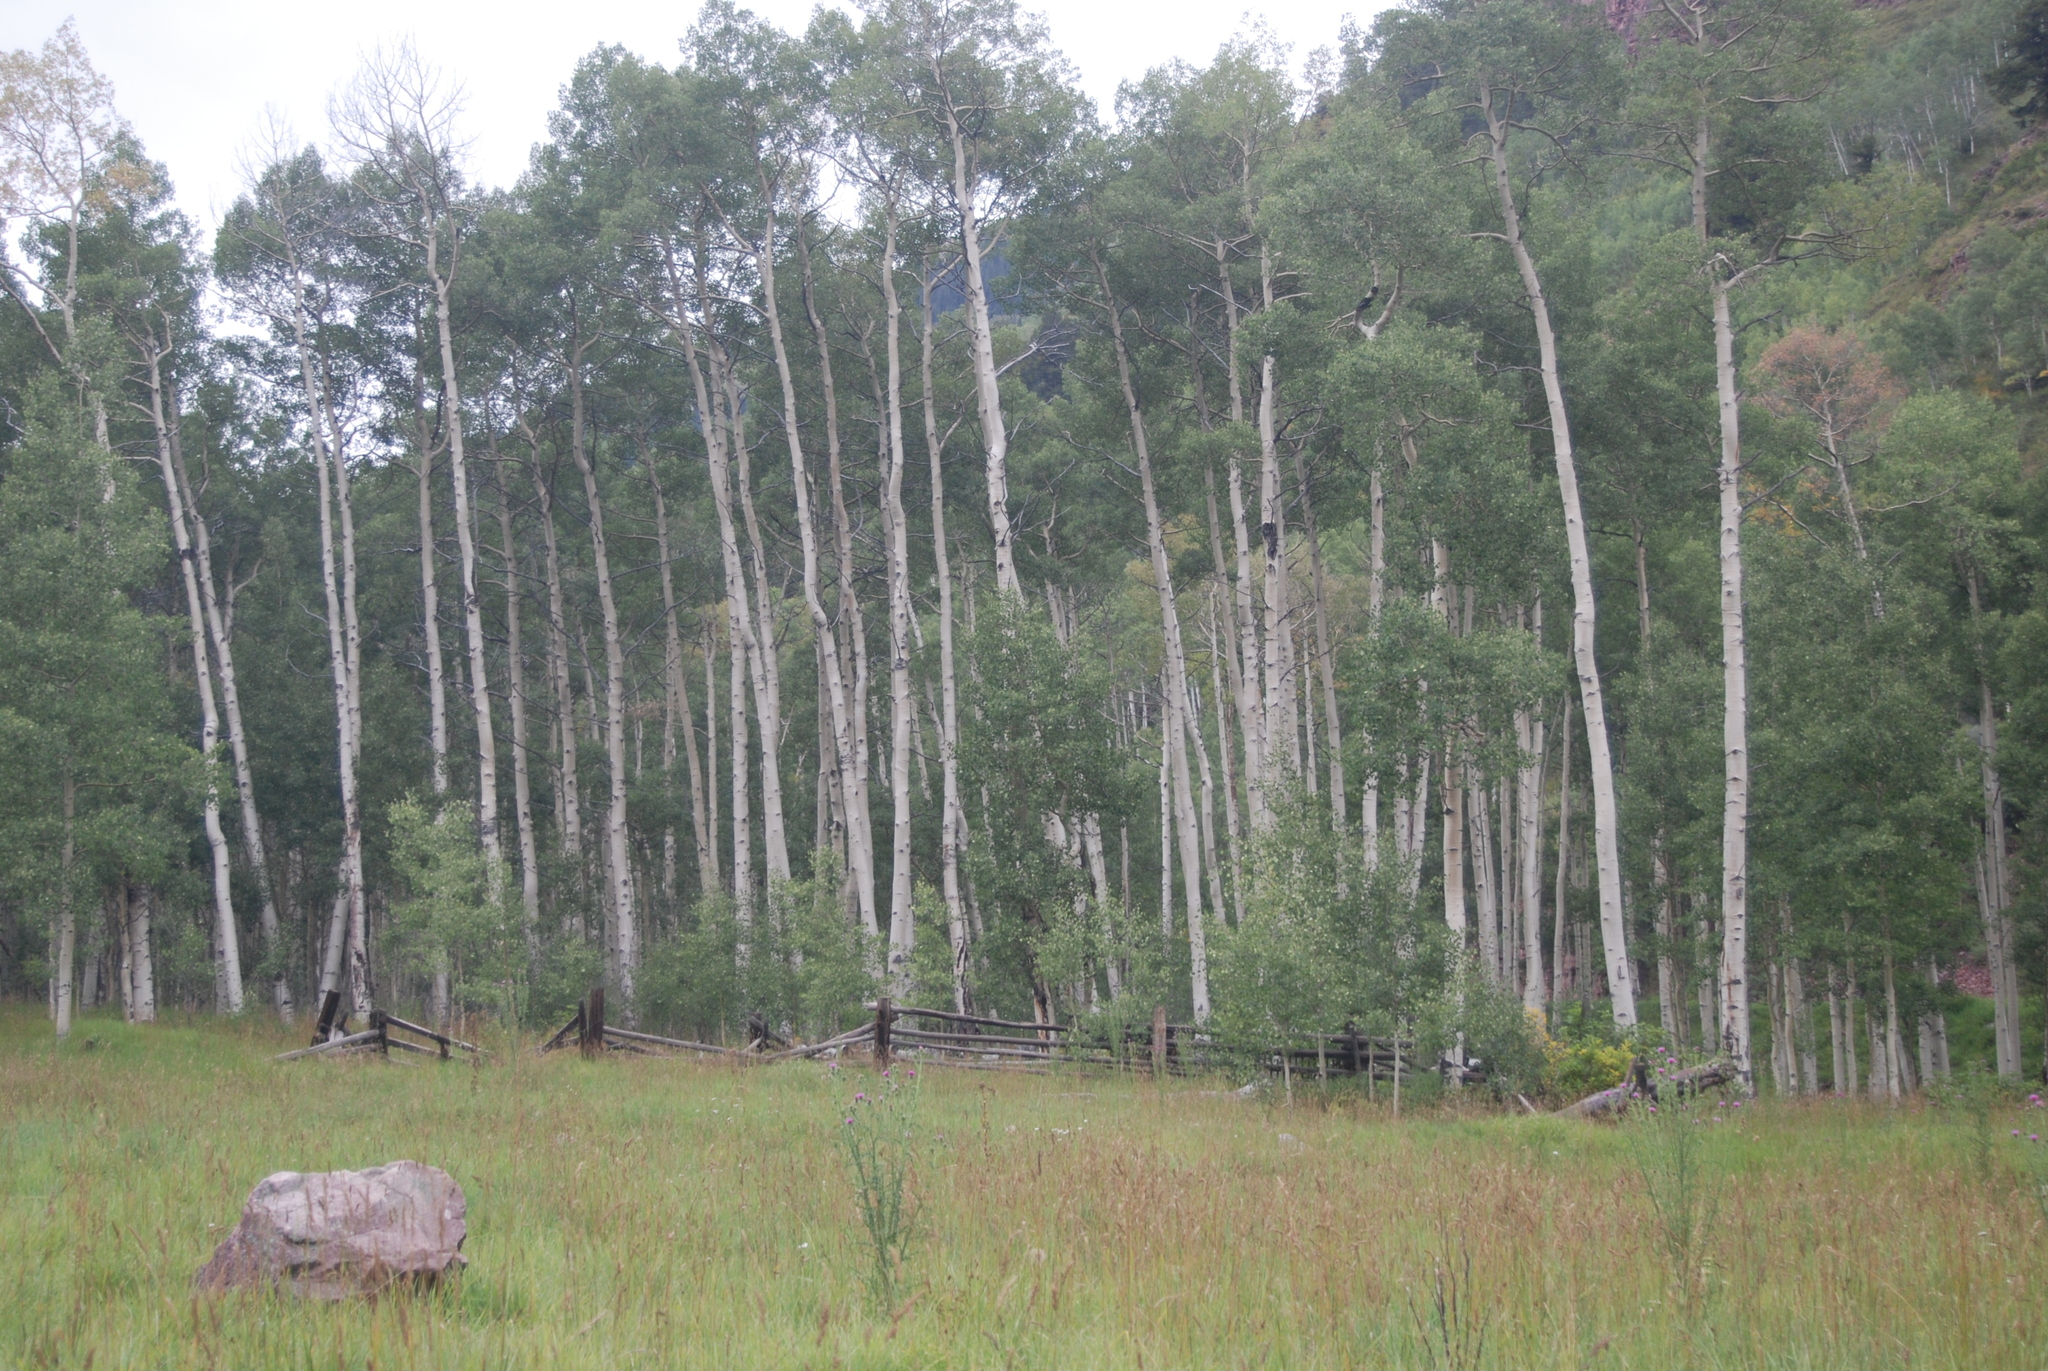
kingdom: Plantae
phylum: Tracheophyta
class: Magnoliopsida
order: Malpighiales
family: Salicaceae
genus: Populus
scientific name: Populus tremuloides
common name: Quaking aspen
